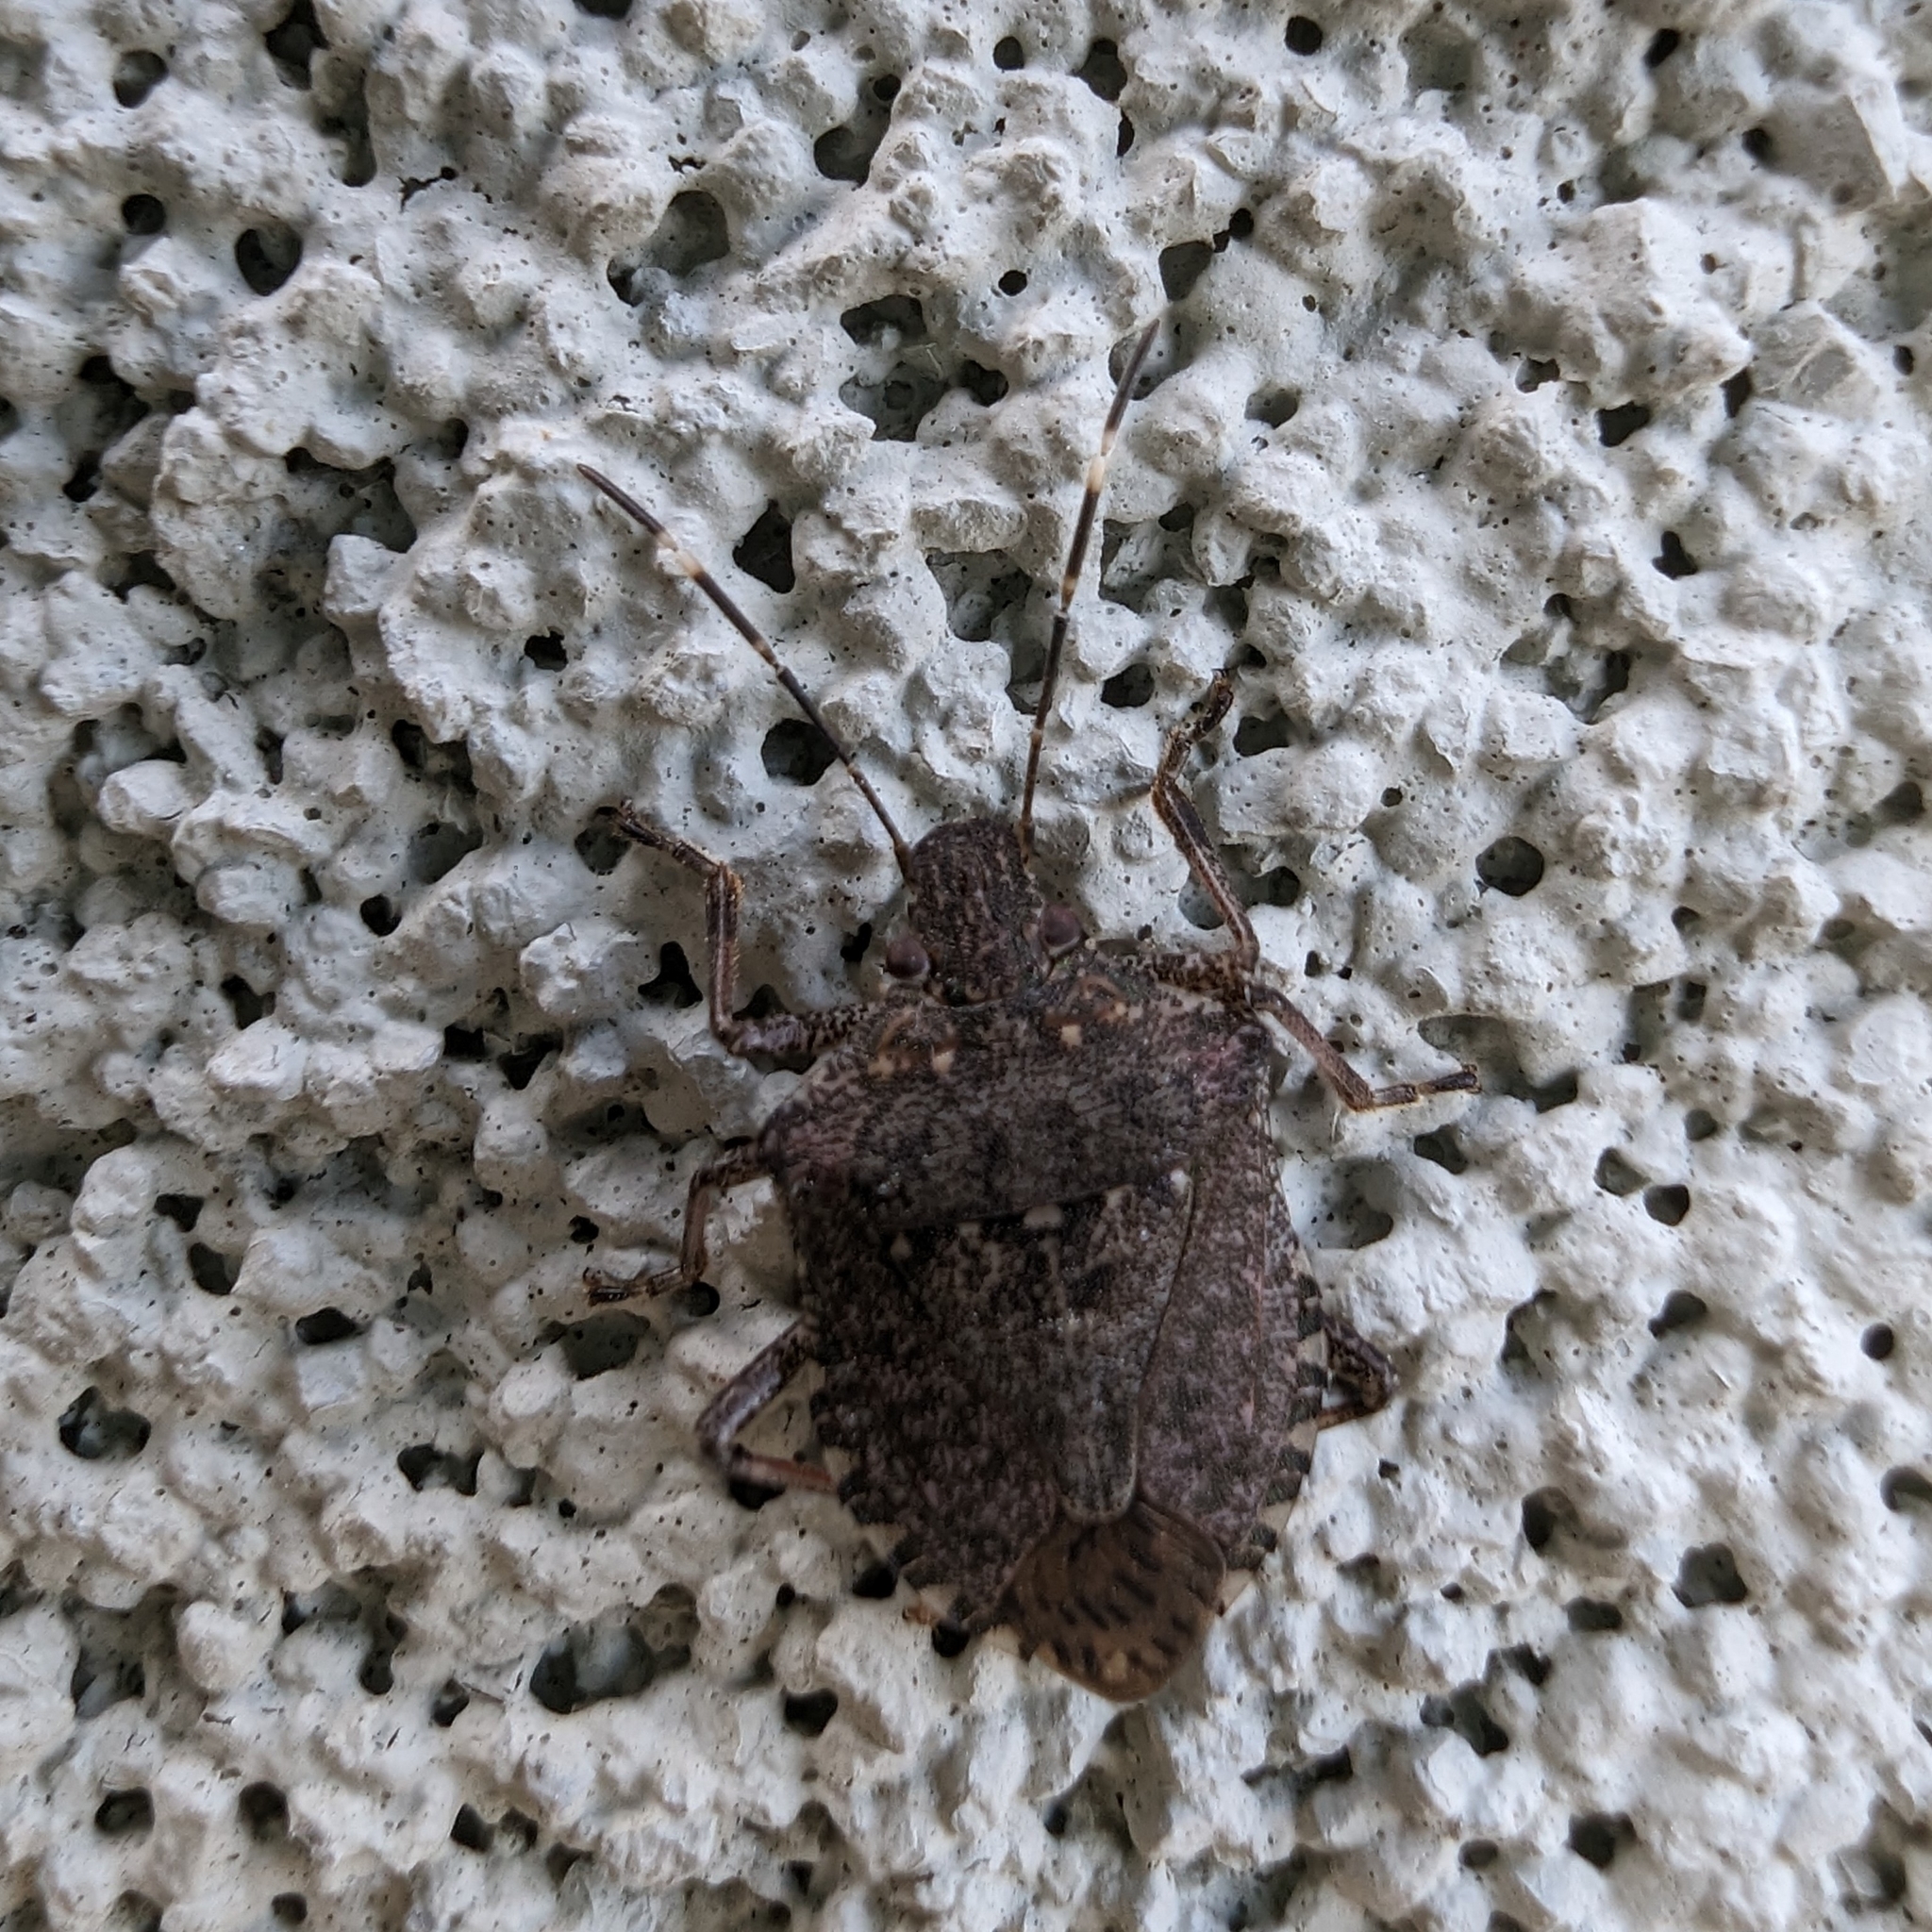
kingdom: Animalia
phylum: Arthropoda
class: Insecta
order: Hemiptera
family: Pentatomidae
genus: Halyomorpha
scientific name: Halyomorpha halys
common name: Brown marmorated stink bug
